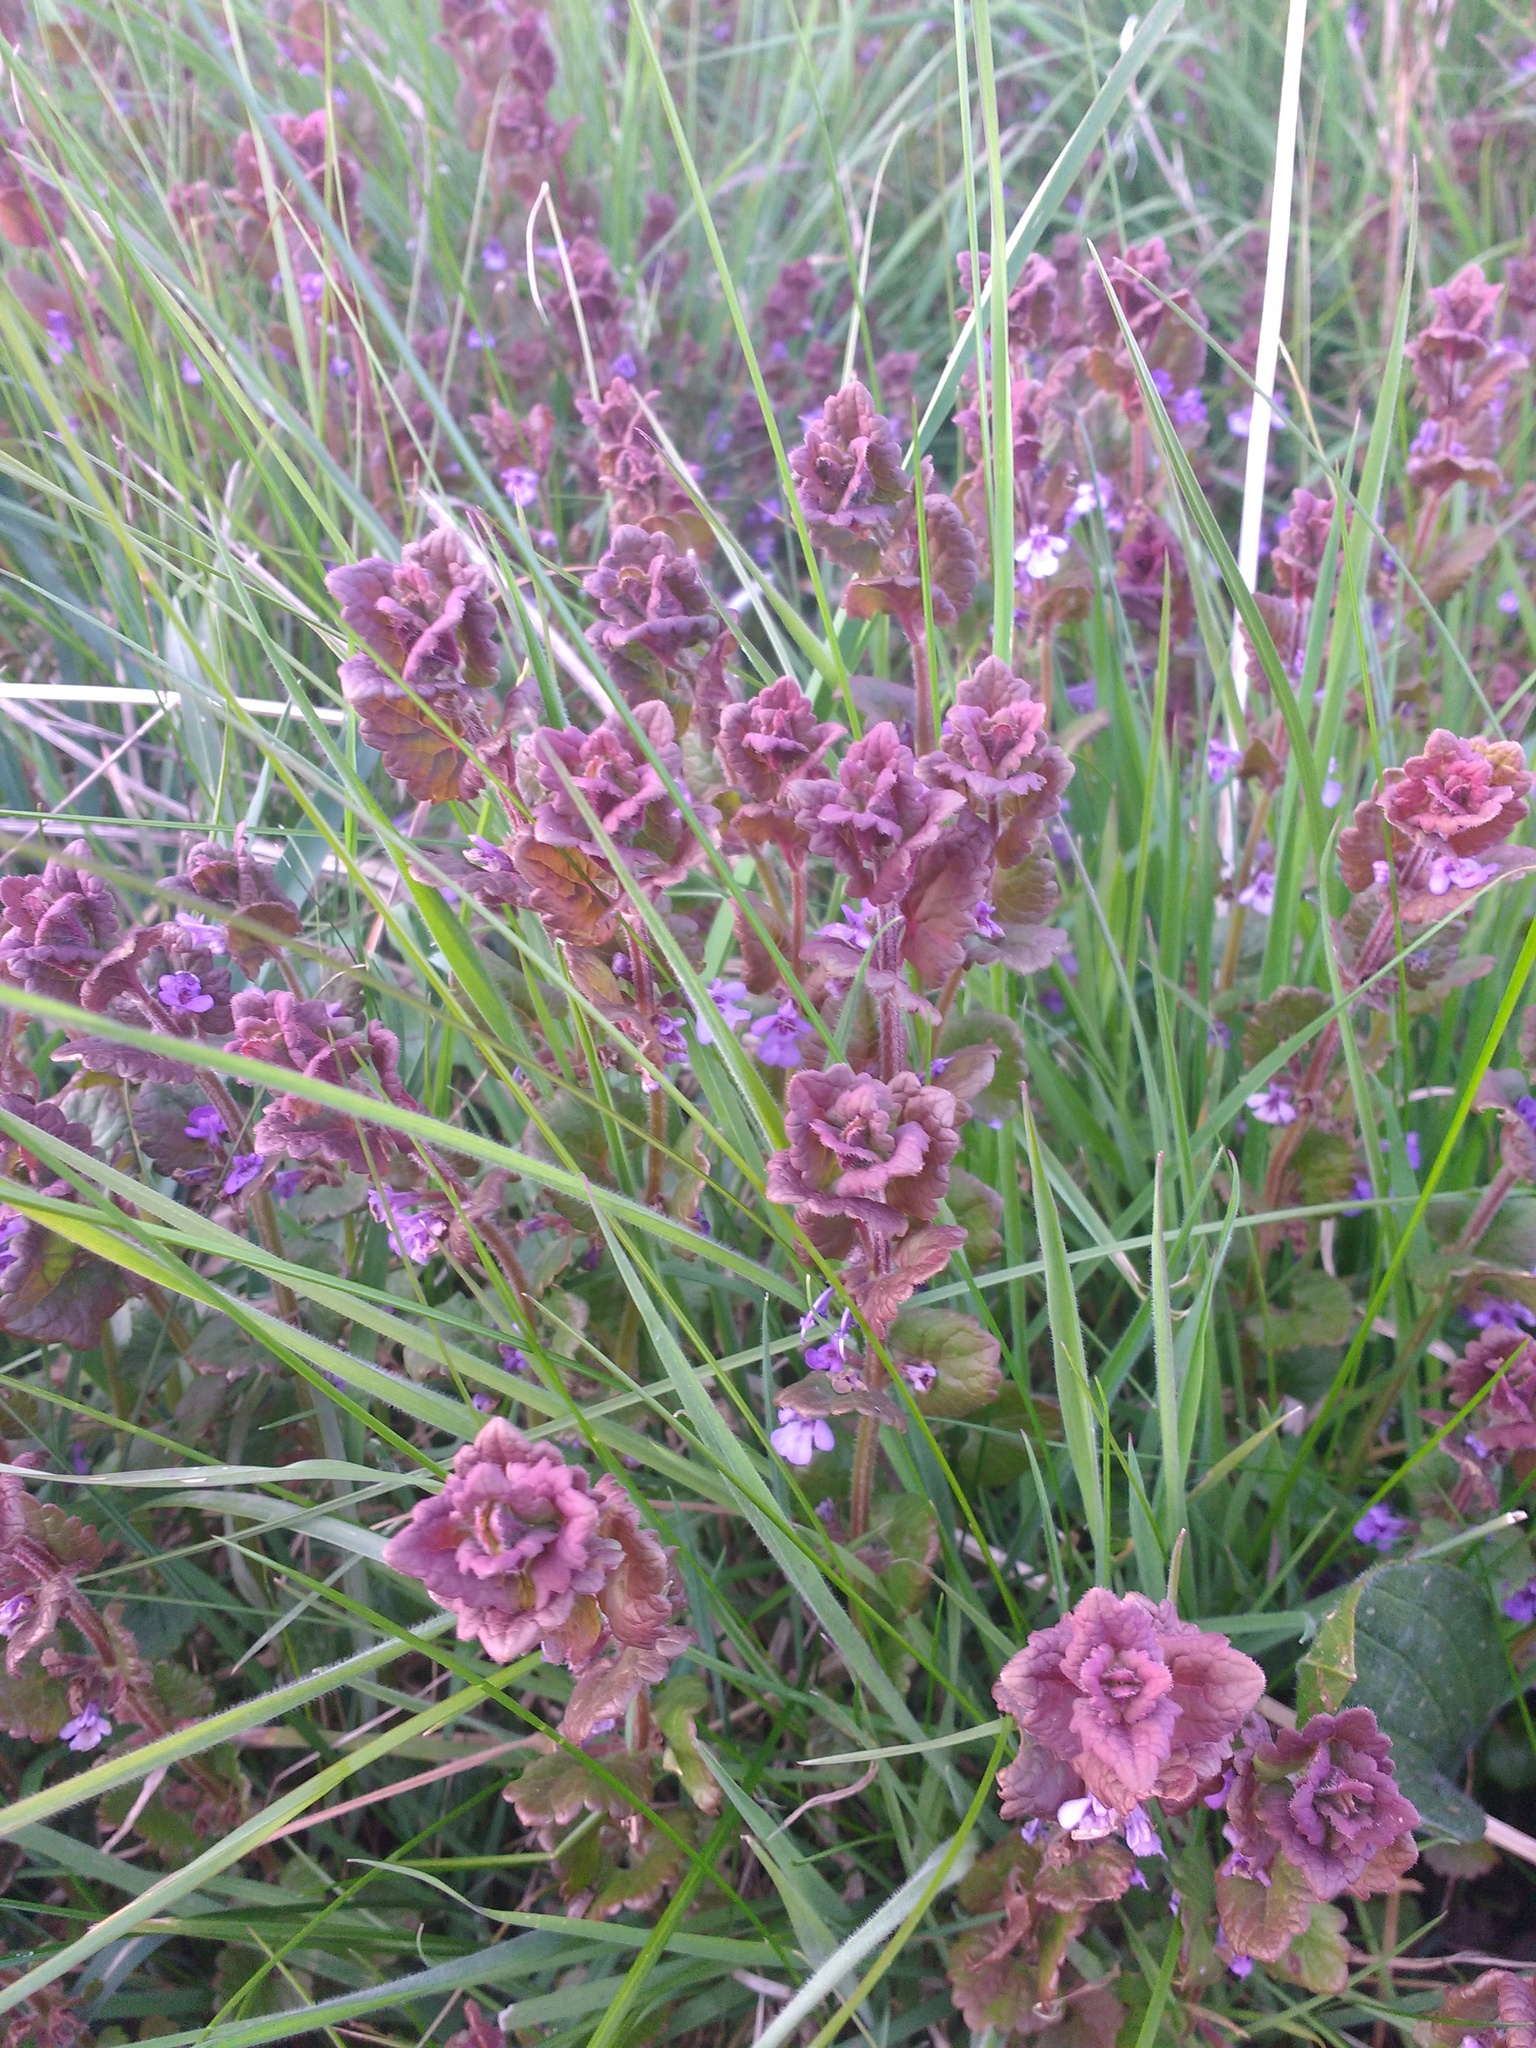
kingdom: Plantae
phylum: Tracheophyta
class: Magnoliopsida
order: Lamiales
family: Lamiaceae
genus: Glechoma
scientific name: Glechoma hederacea
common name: Ground ivy
